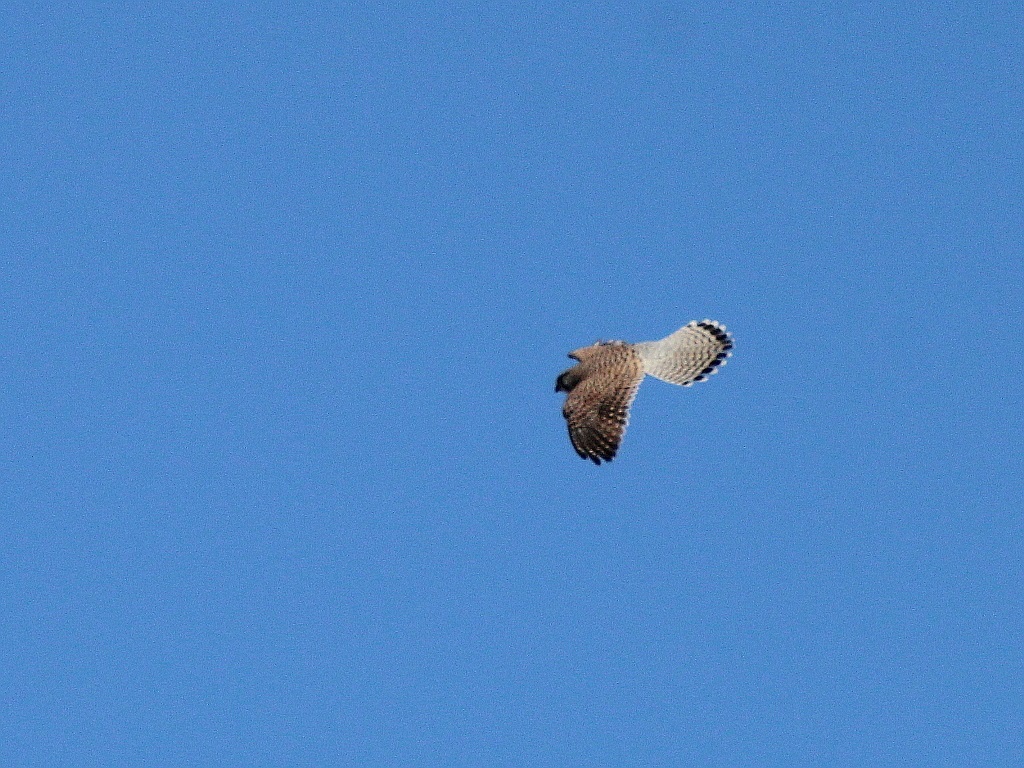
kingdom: Animalia
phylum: Chordata
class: Aves
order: Falconiformes
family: Falconidae
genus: Falco
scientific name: Falco tinnunculus
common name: Common kestrel
